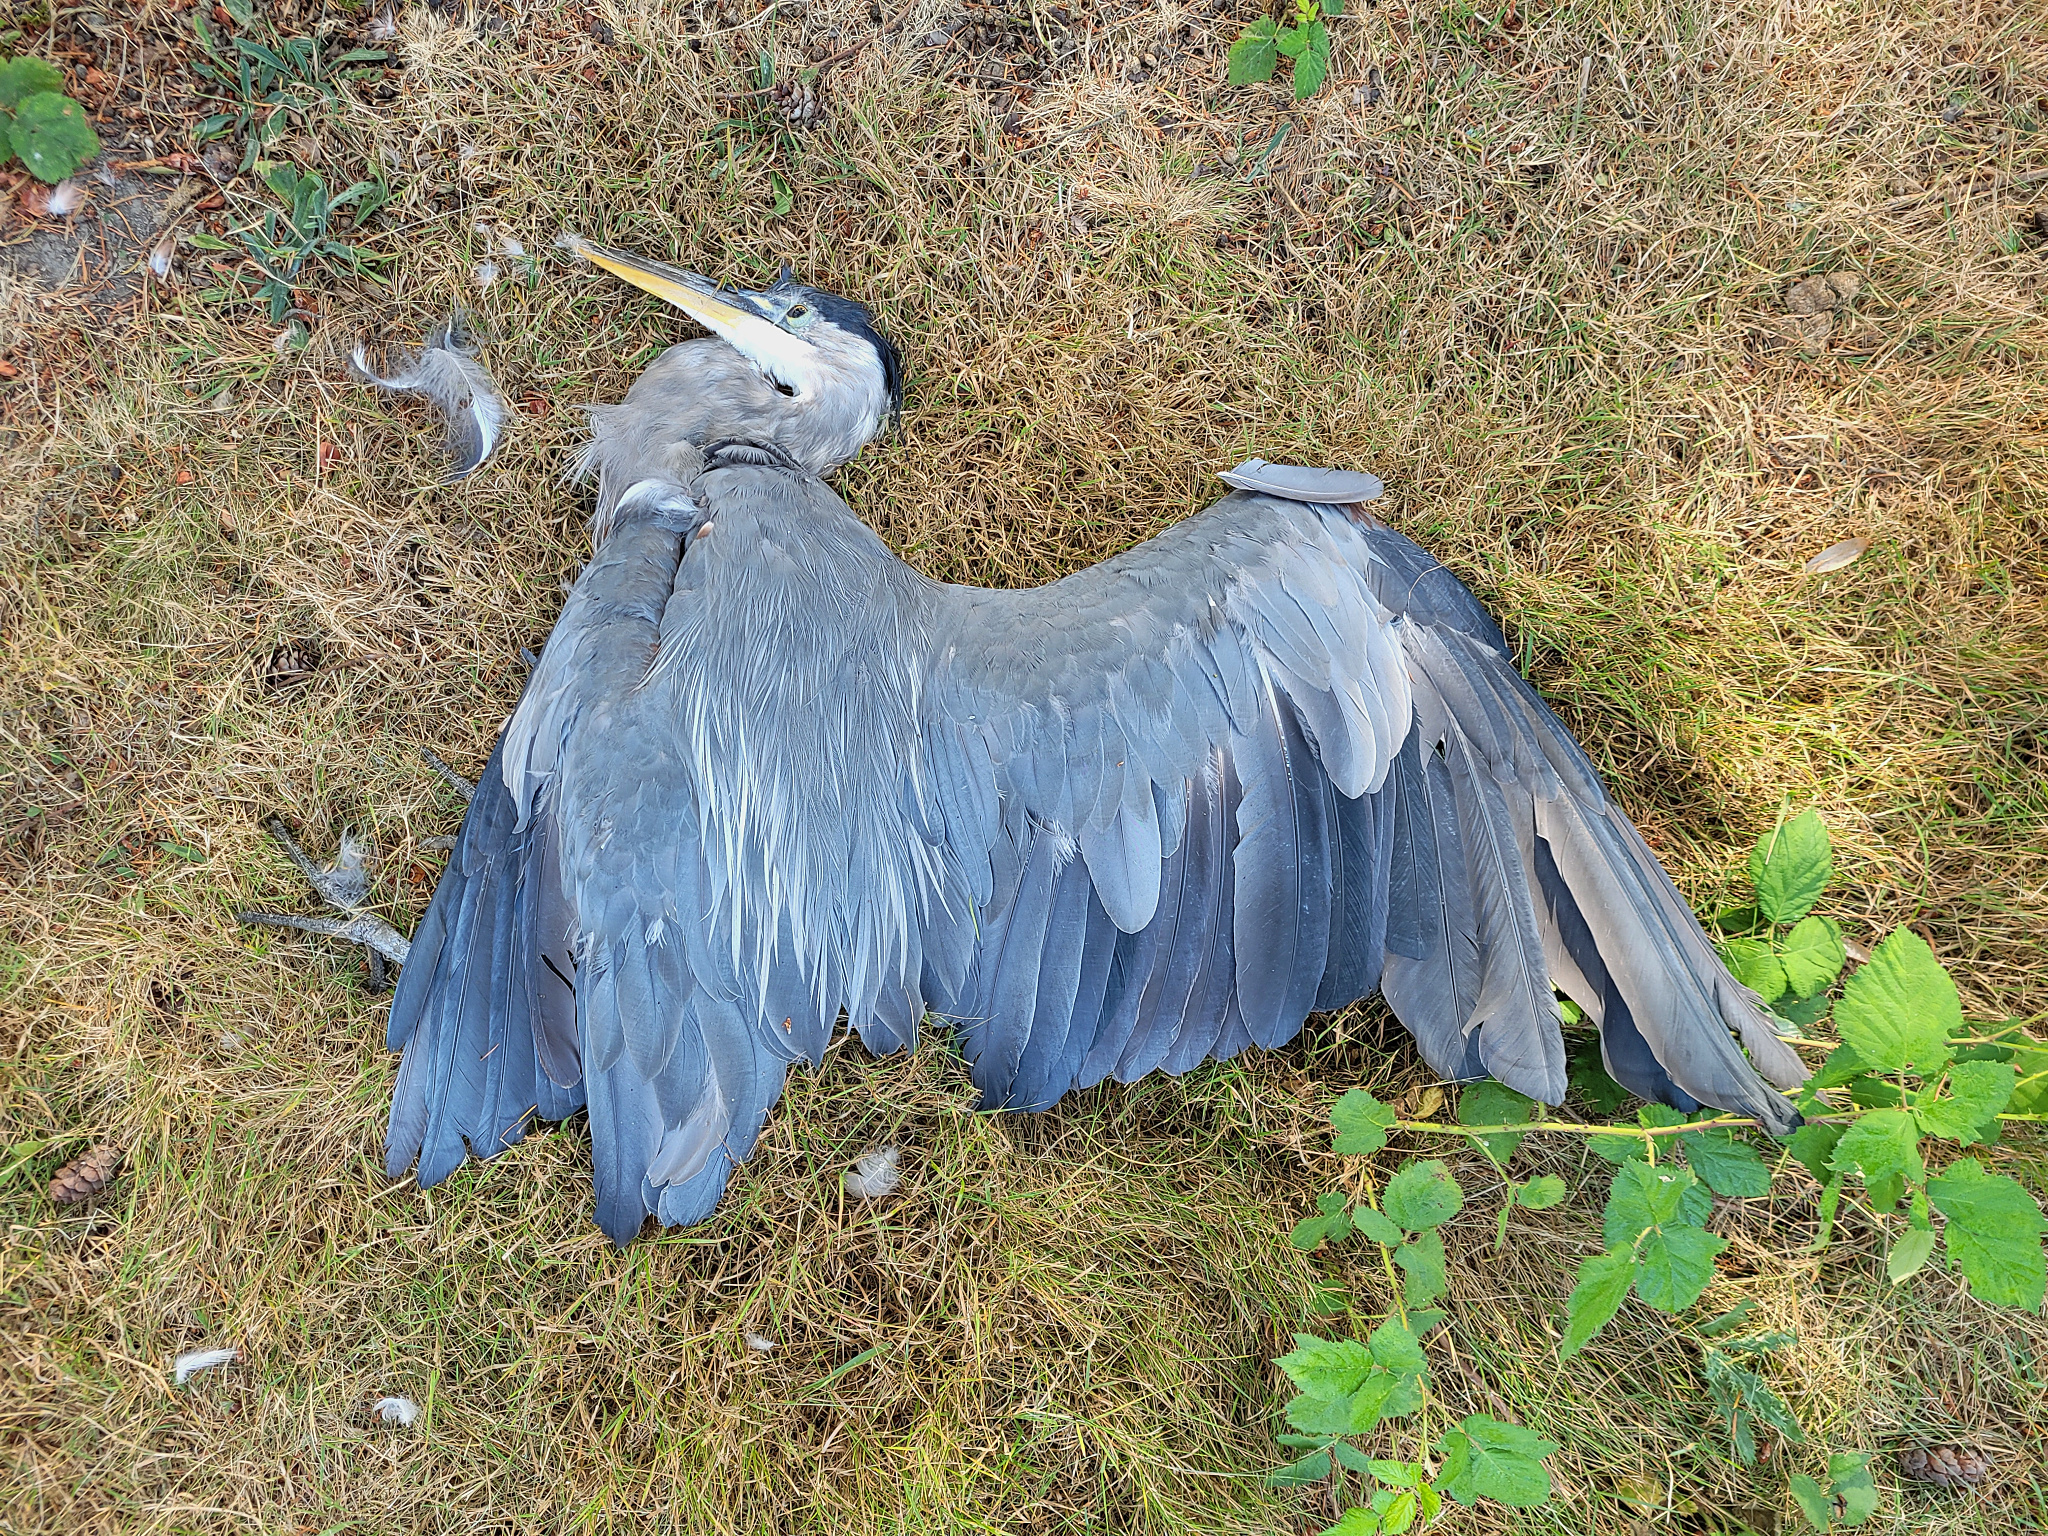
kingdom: Animalia
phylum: Chordata
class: Aves
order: Pelecaniformes
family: Ardeidae
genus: Ardea
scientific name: Ardea herodias
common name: Great blue heron
